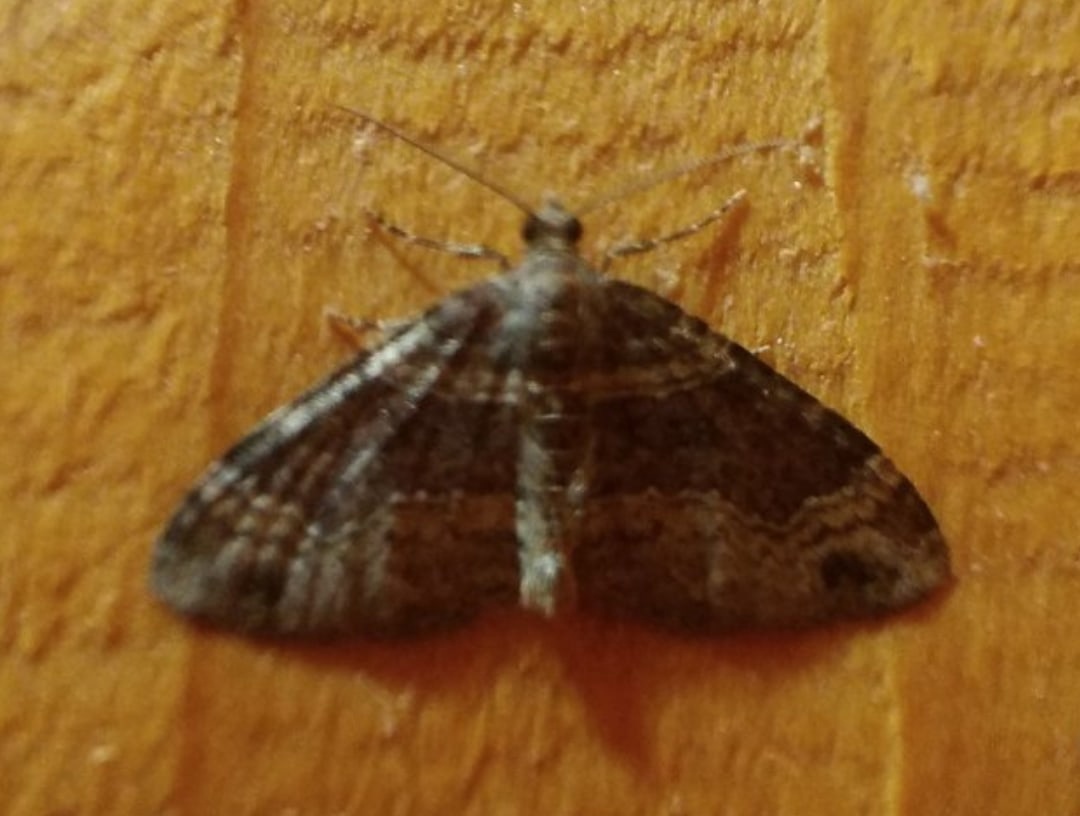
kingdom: Animalia
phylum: Arthropoda
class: Insecta
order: Lepidoptera
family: Geometridae
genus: Xanthorhoe
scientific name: Xanthorhoe ferrugata
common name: Dark-barred twin-spot carpet
